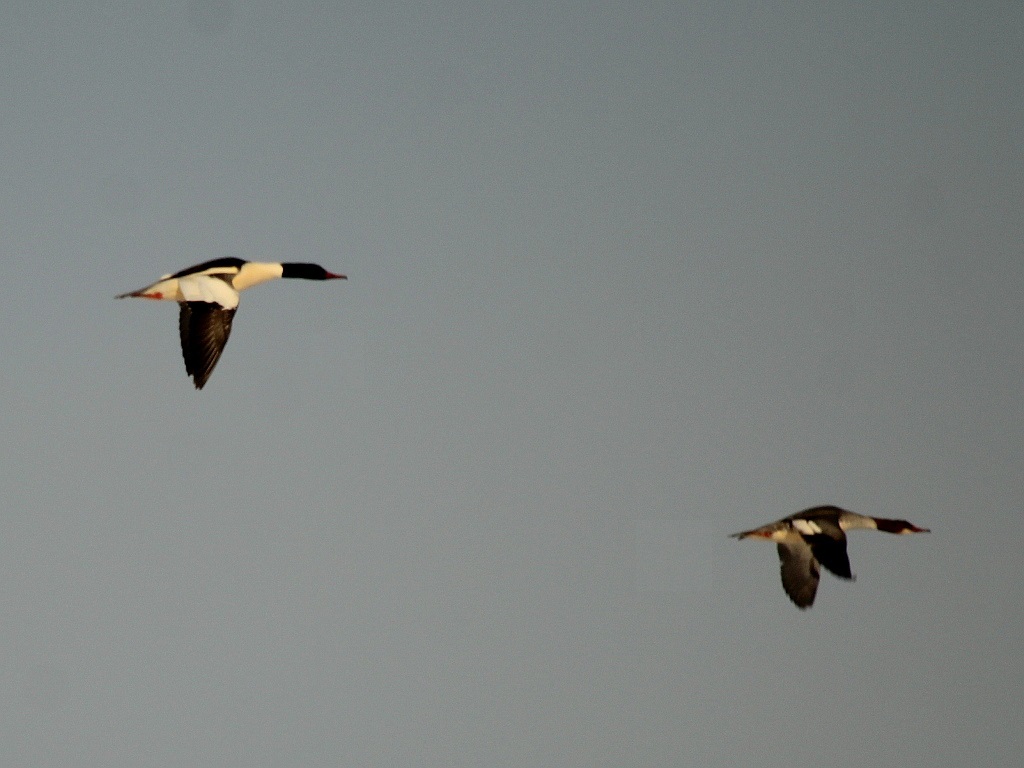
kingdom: Animalia
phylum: Chordata
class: Aves
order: Anseriformes
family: Anatidae
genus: Mergus
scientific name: Mergus merganser
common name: Common merganser
